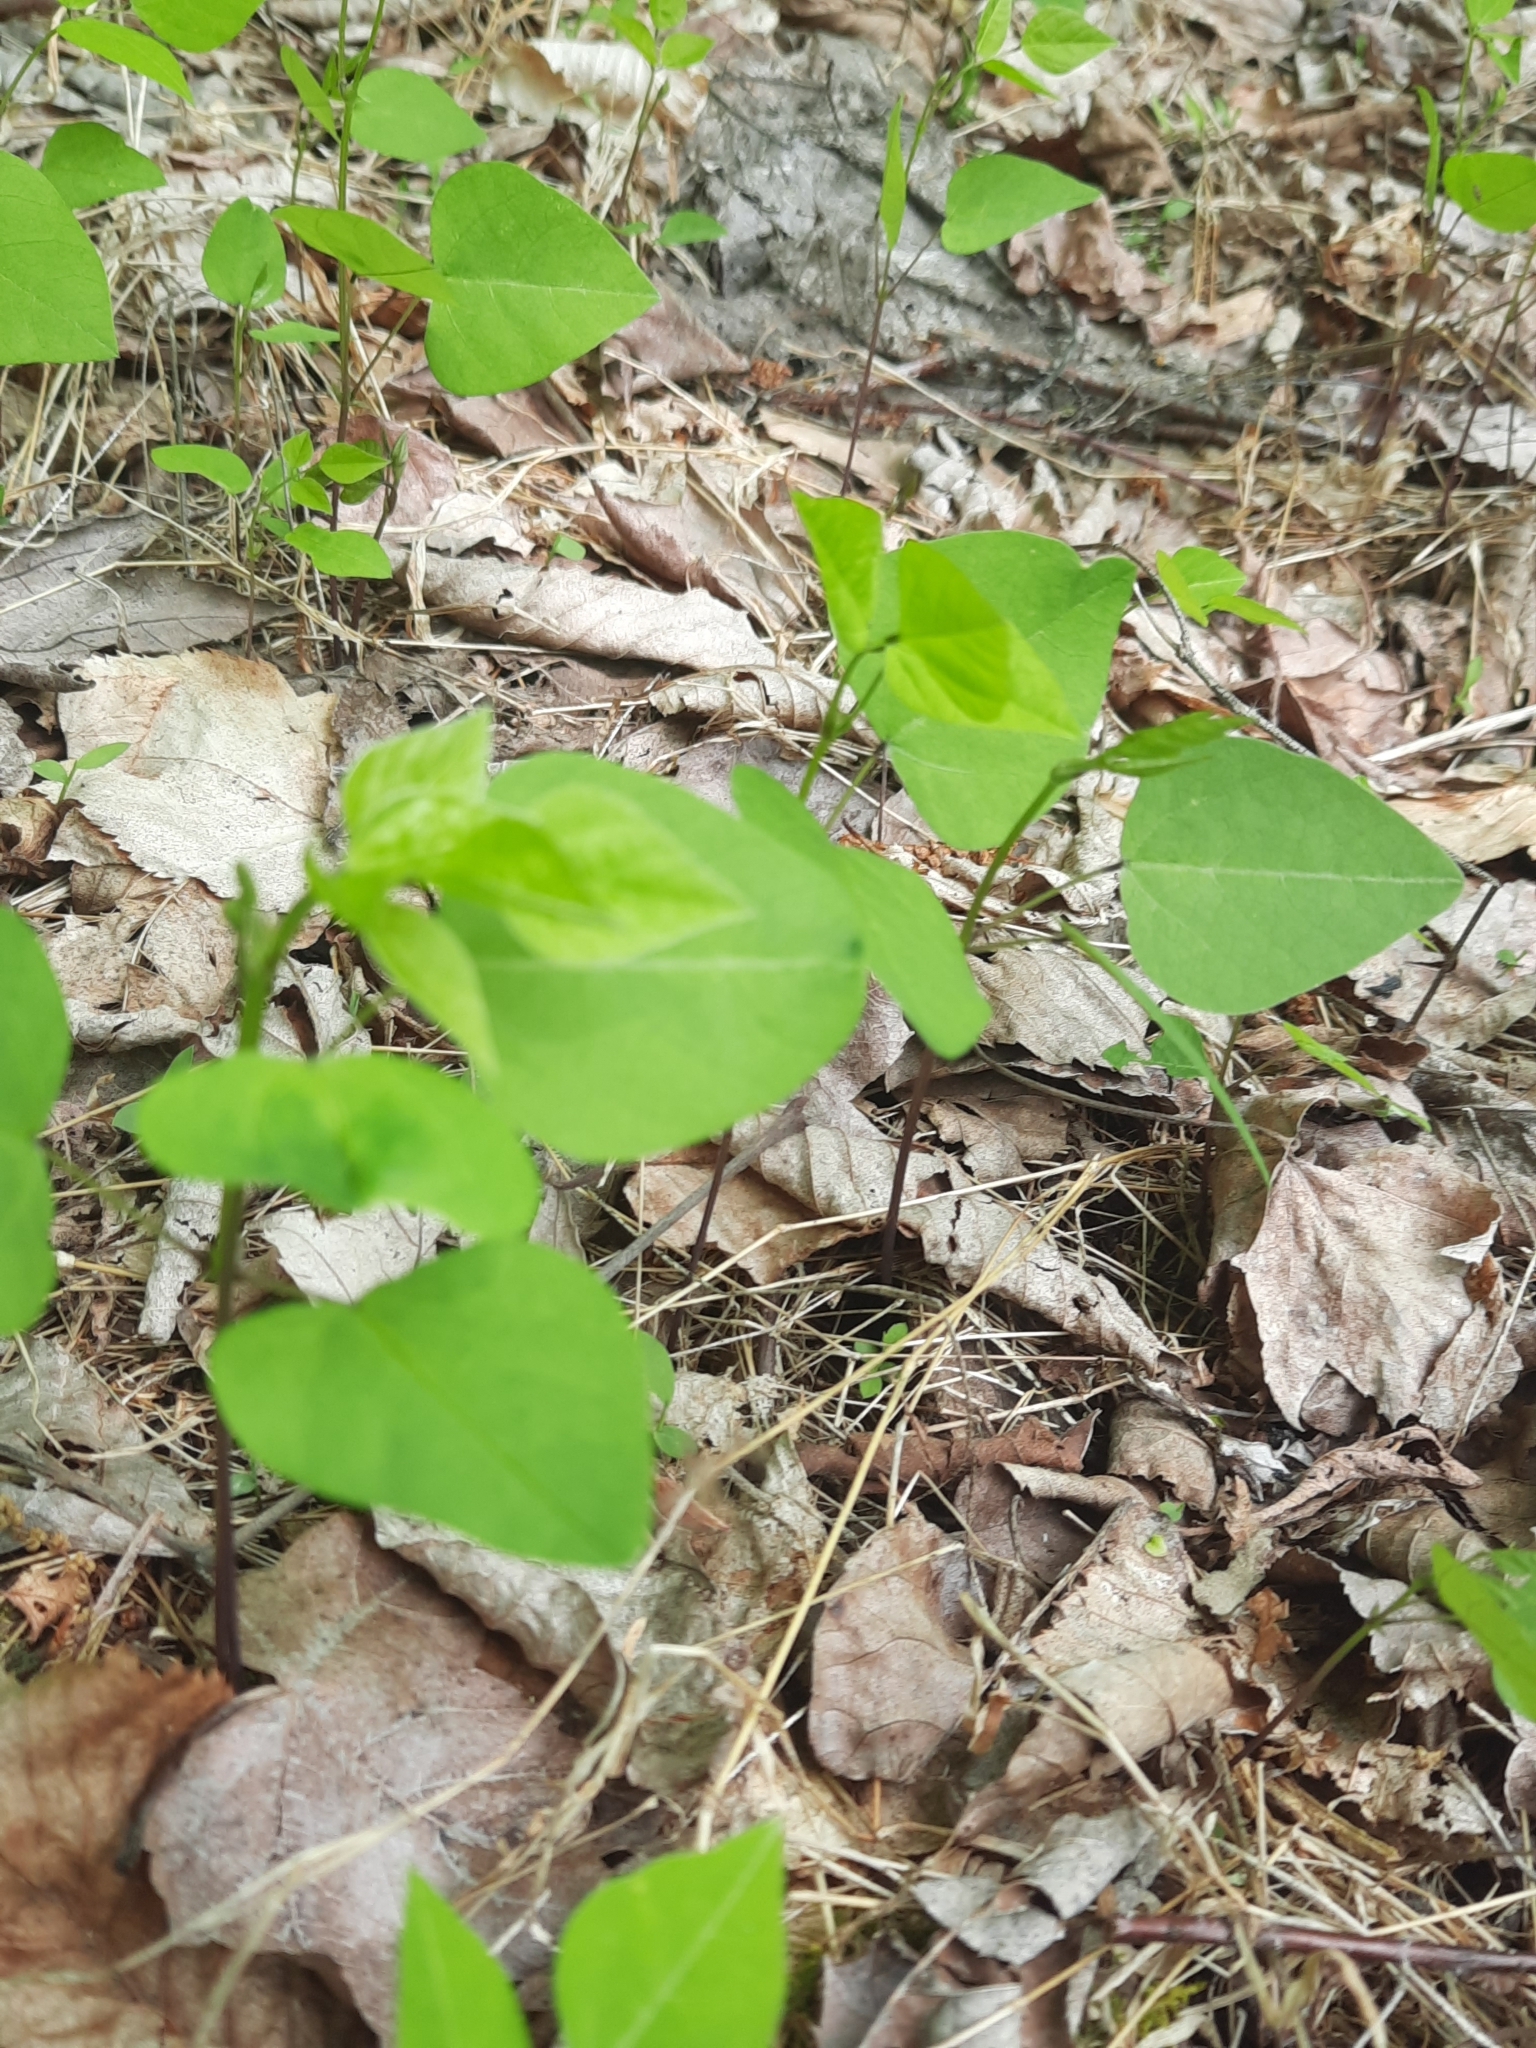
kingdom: Plantae
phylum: Tracheophyta
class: Magnoliopsida
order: Fabales
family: Fabaceae
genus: Amphicarpaea
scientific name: Amphicarpaea bracteata
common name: American hog peanut
